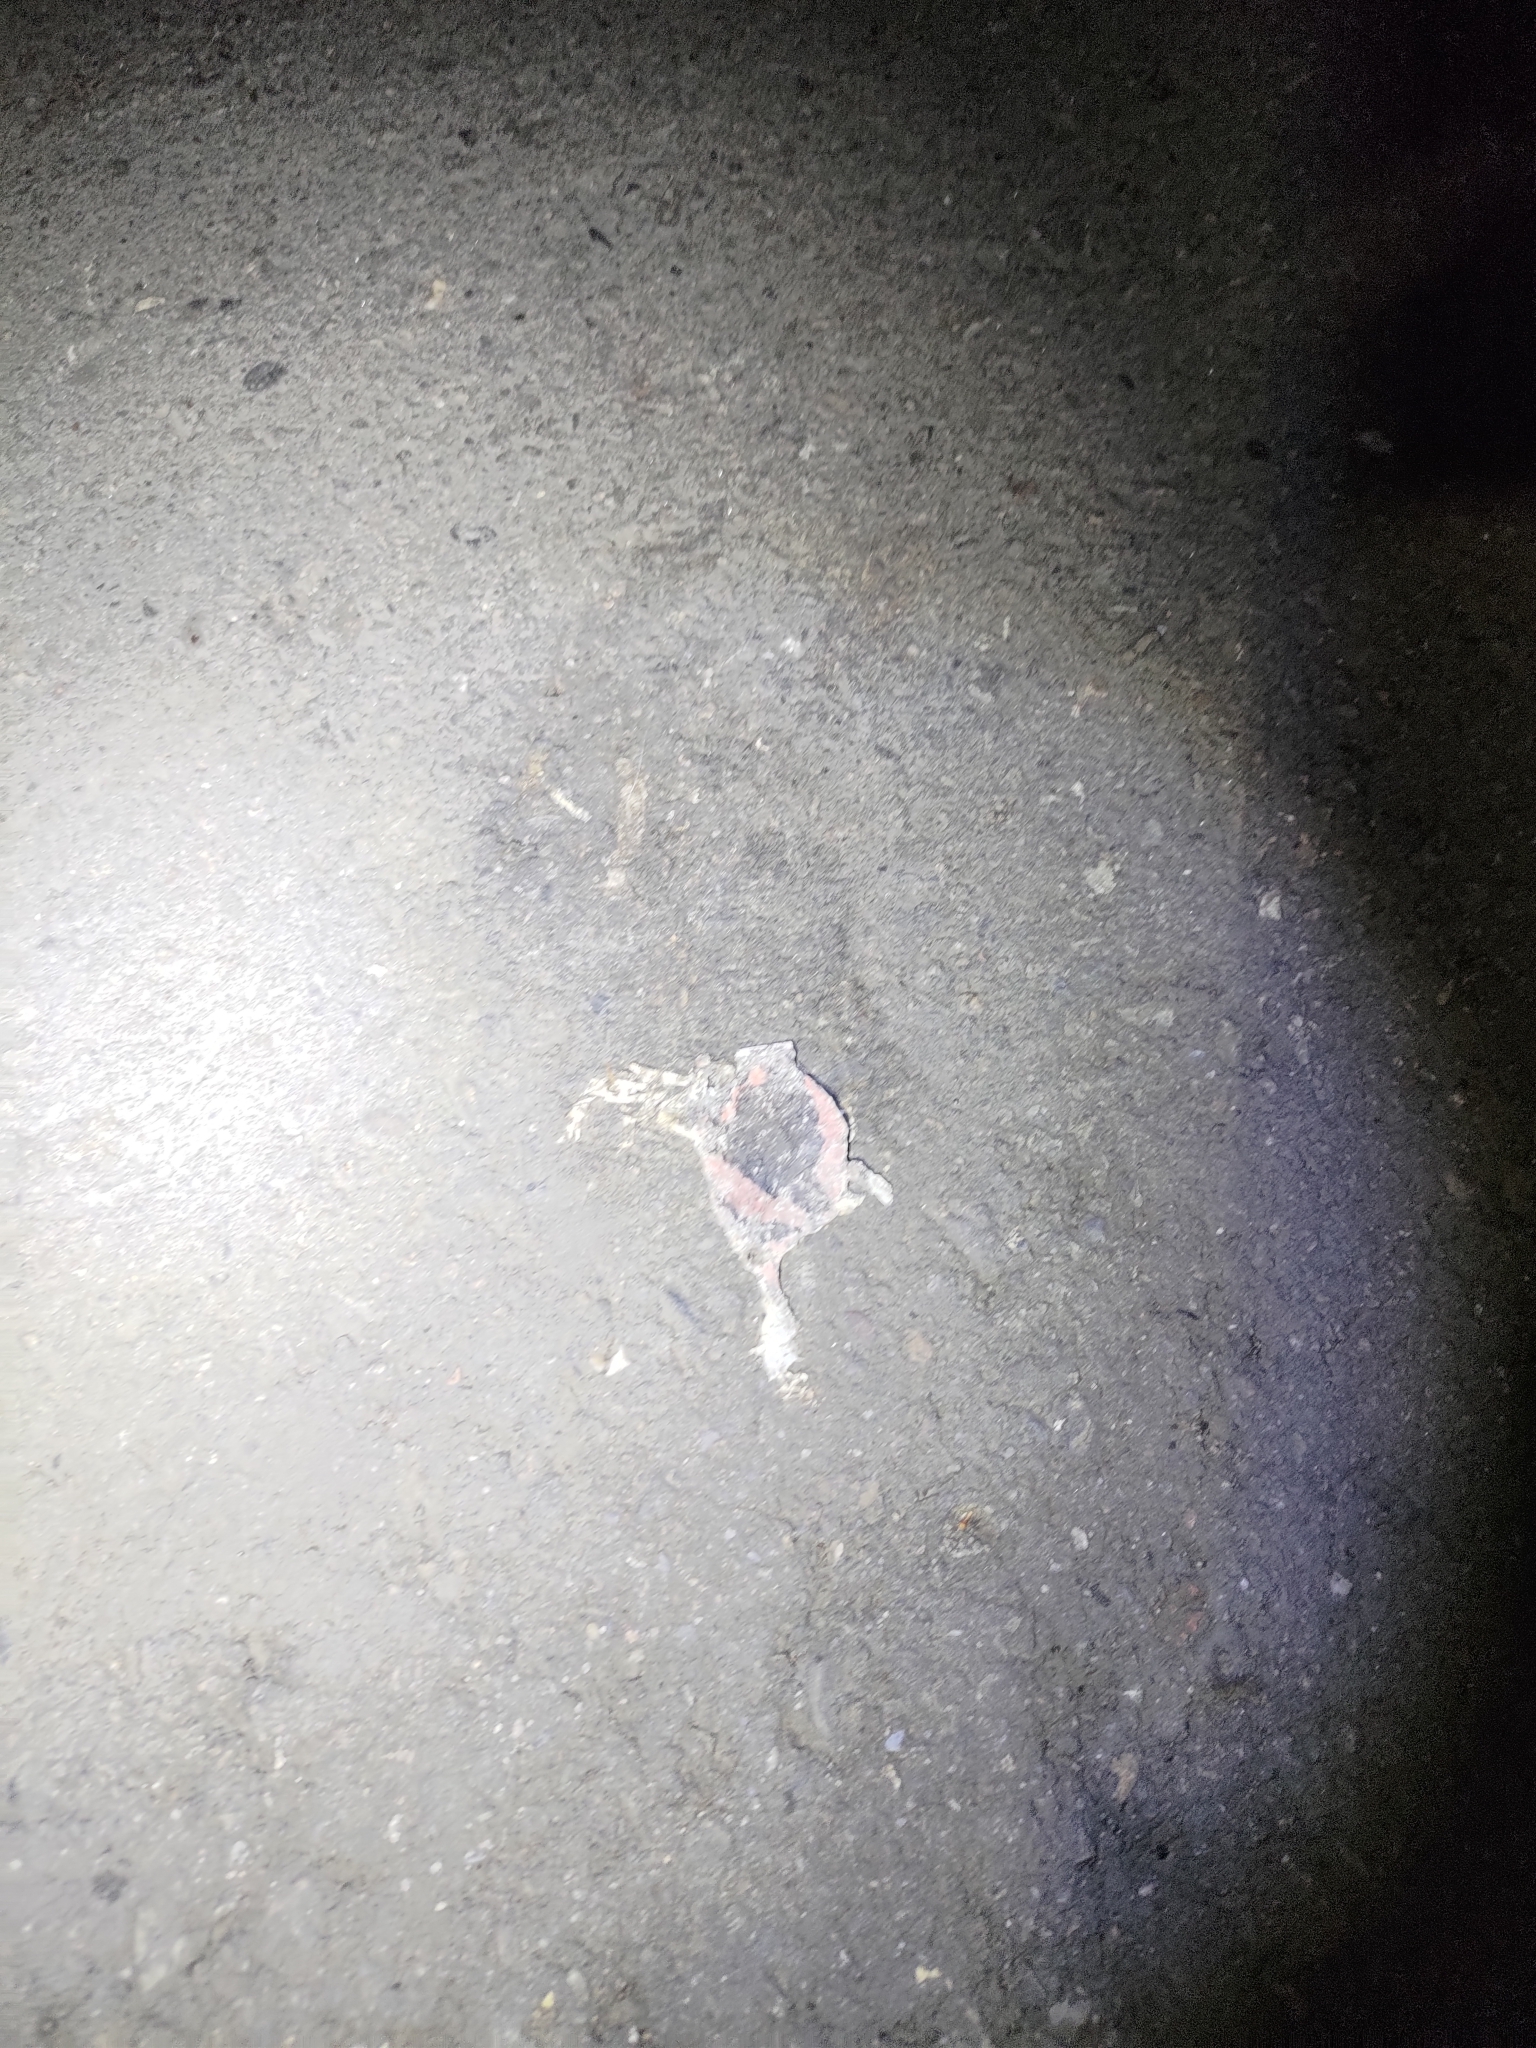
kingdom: Animalia
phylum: Chordata
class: Amphibia
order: Anura
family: Microhylidae
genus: Kaloula
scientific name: Kaloula pulchra
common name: Common,banded bullfrog
